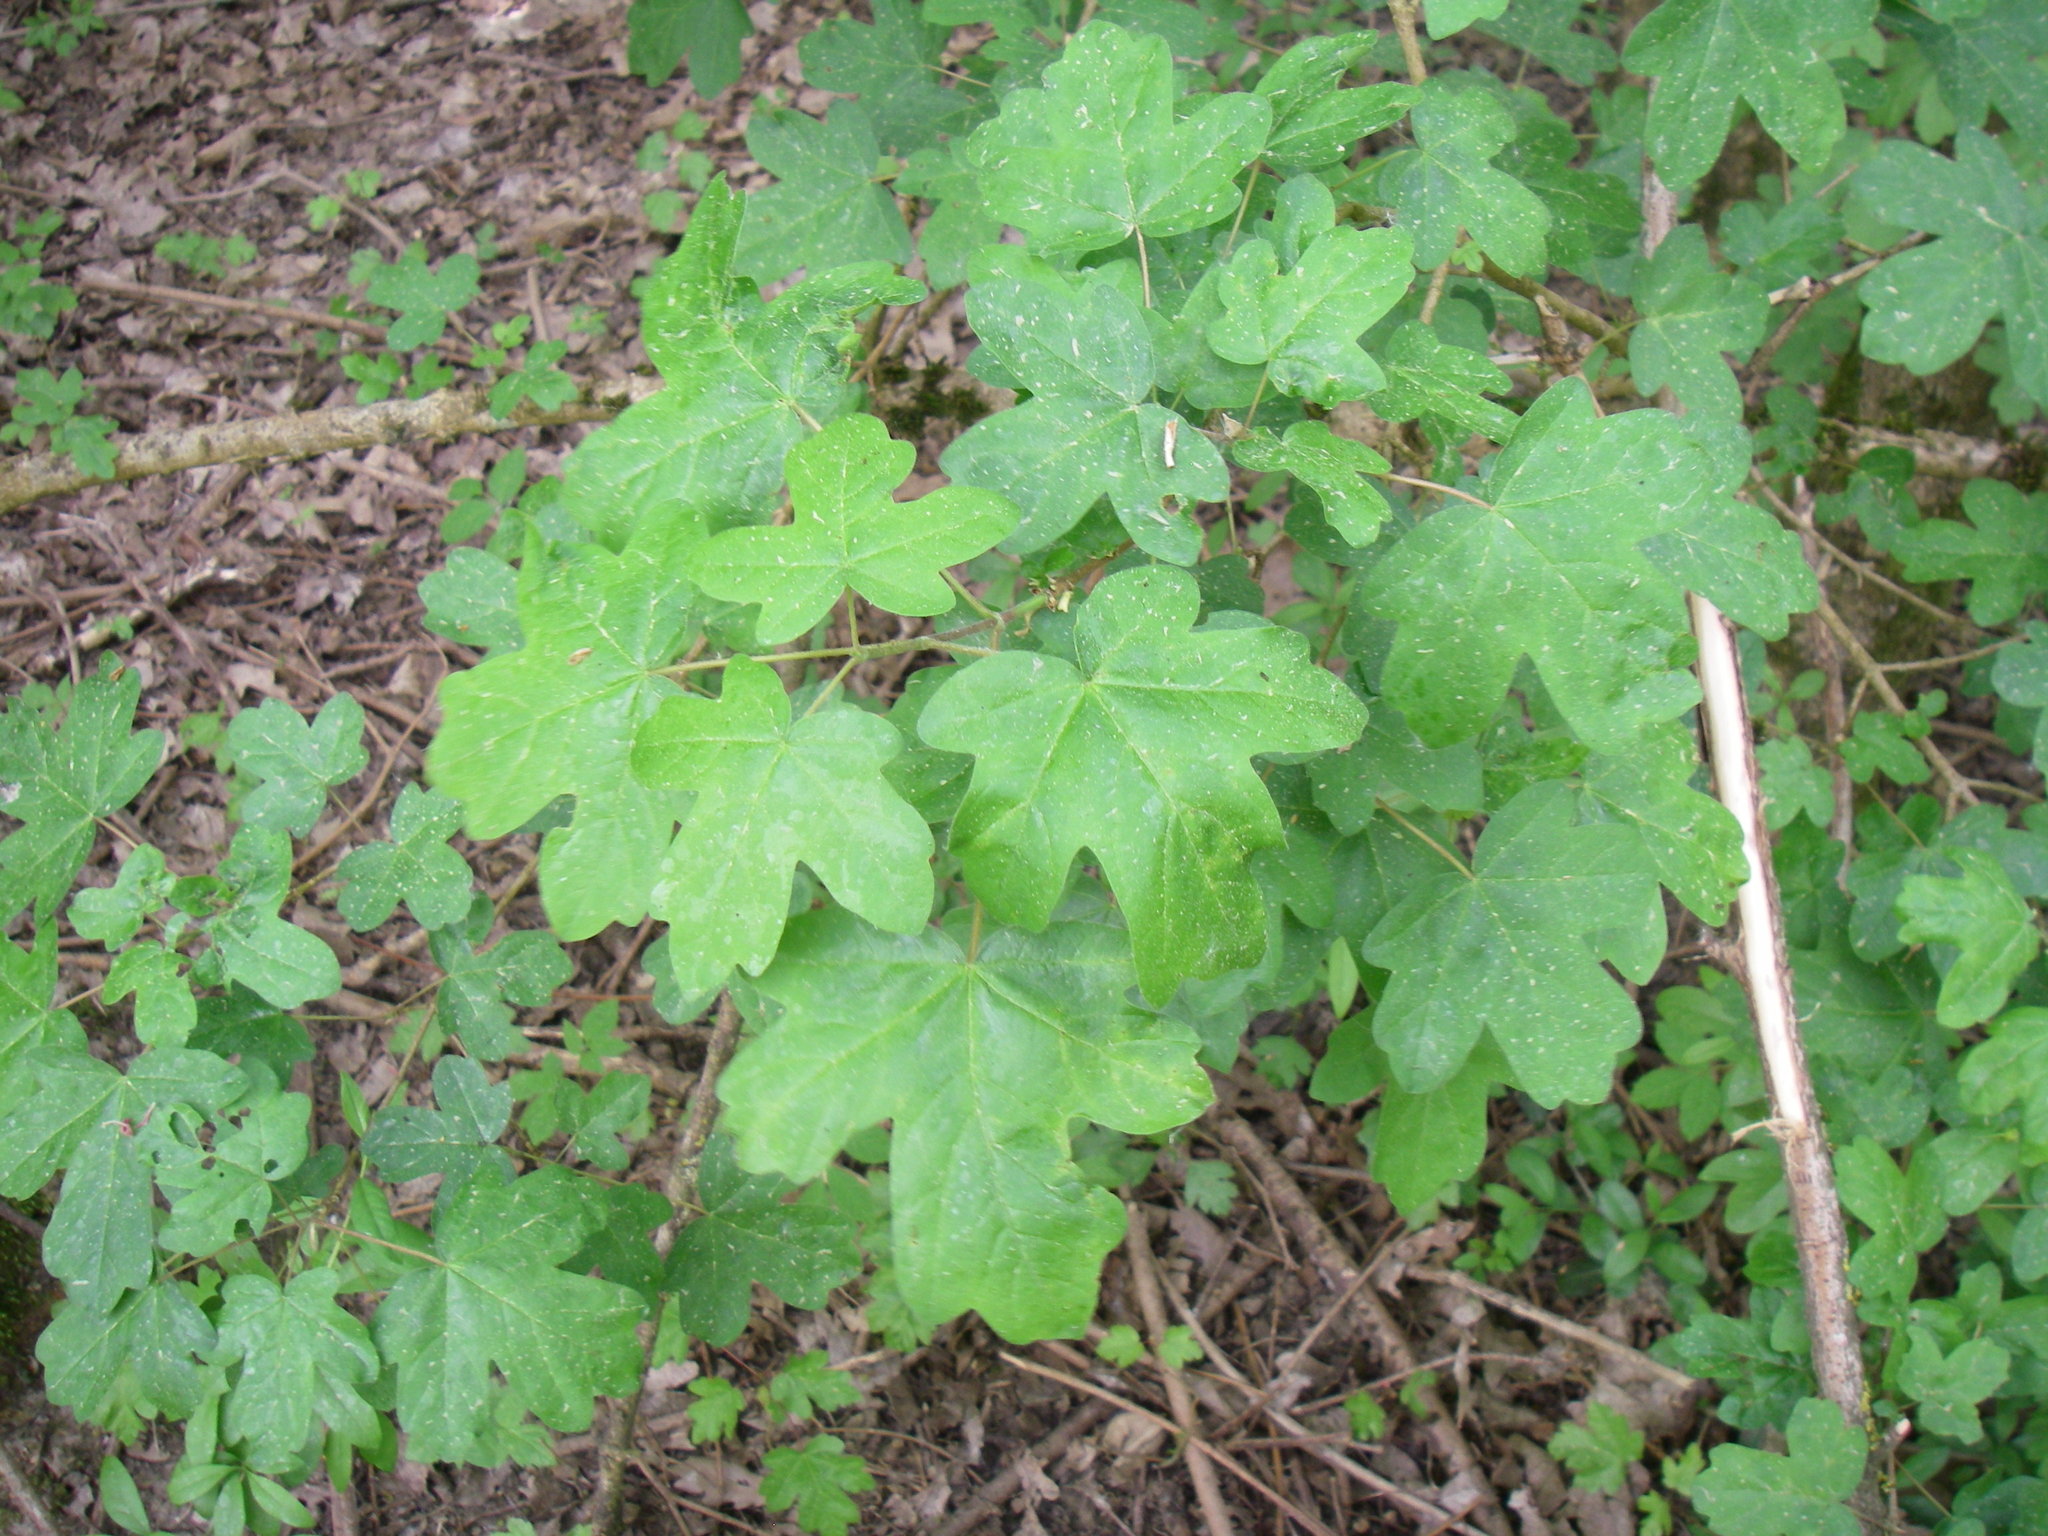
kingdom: Plantae
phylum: Tracheophyta
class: Magnoliopsida
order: Sapindales
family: Sapindaceae
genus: Acer
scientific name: Acer campestre
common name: Field maple
